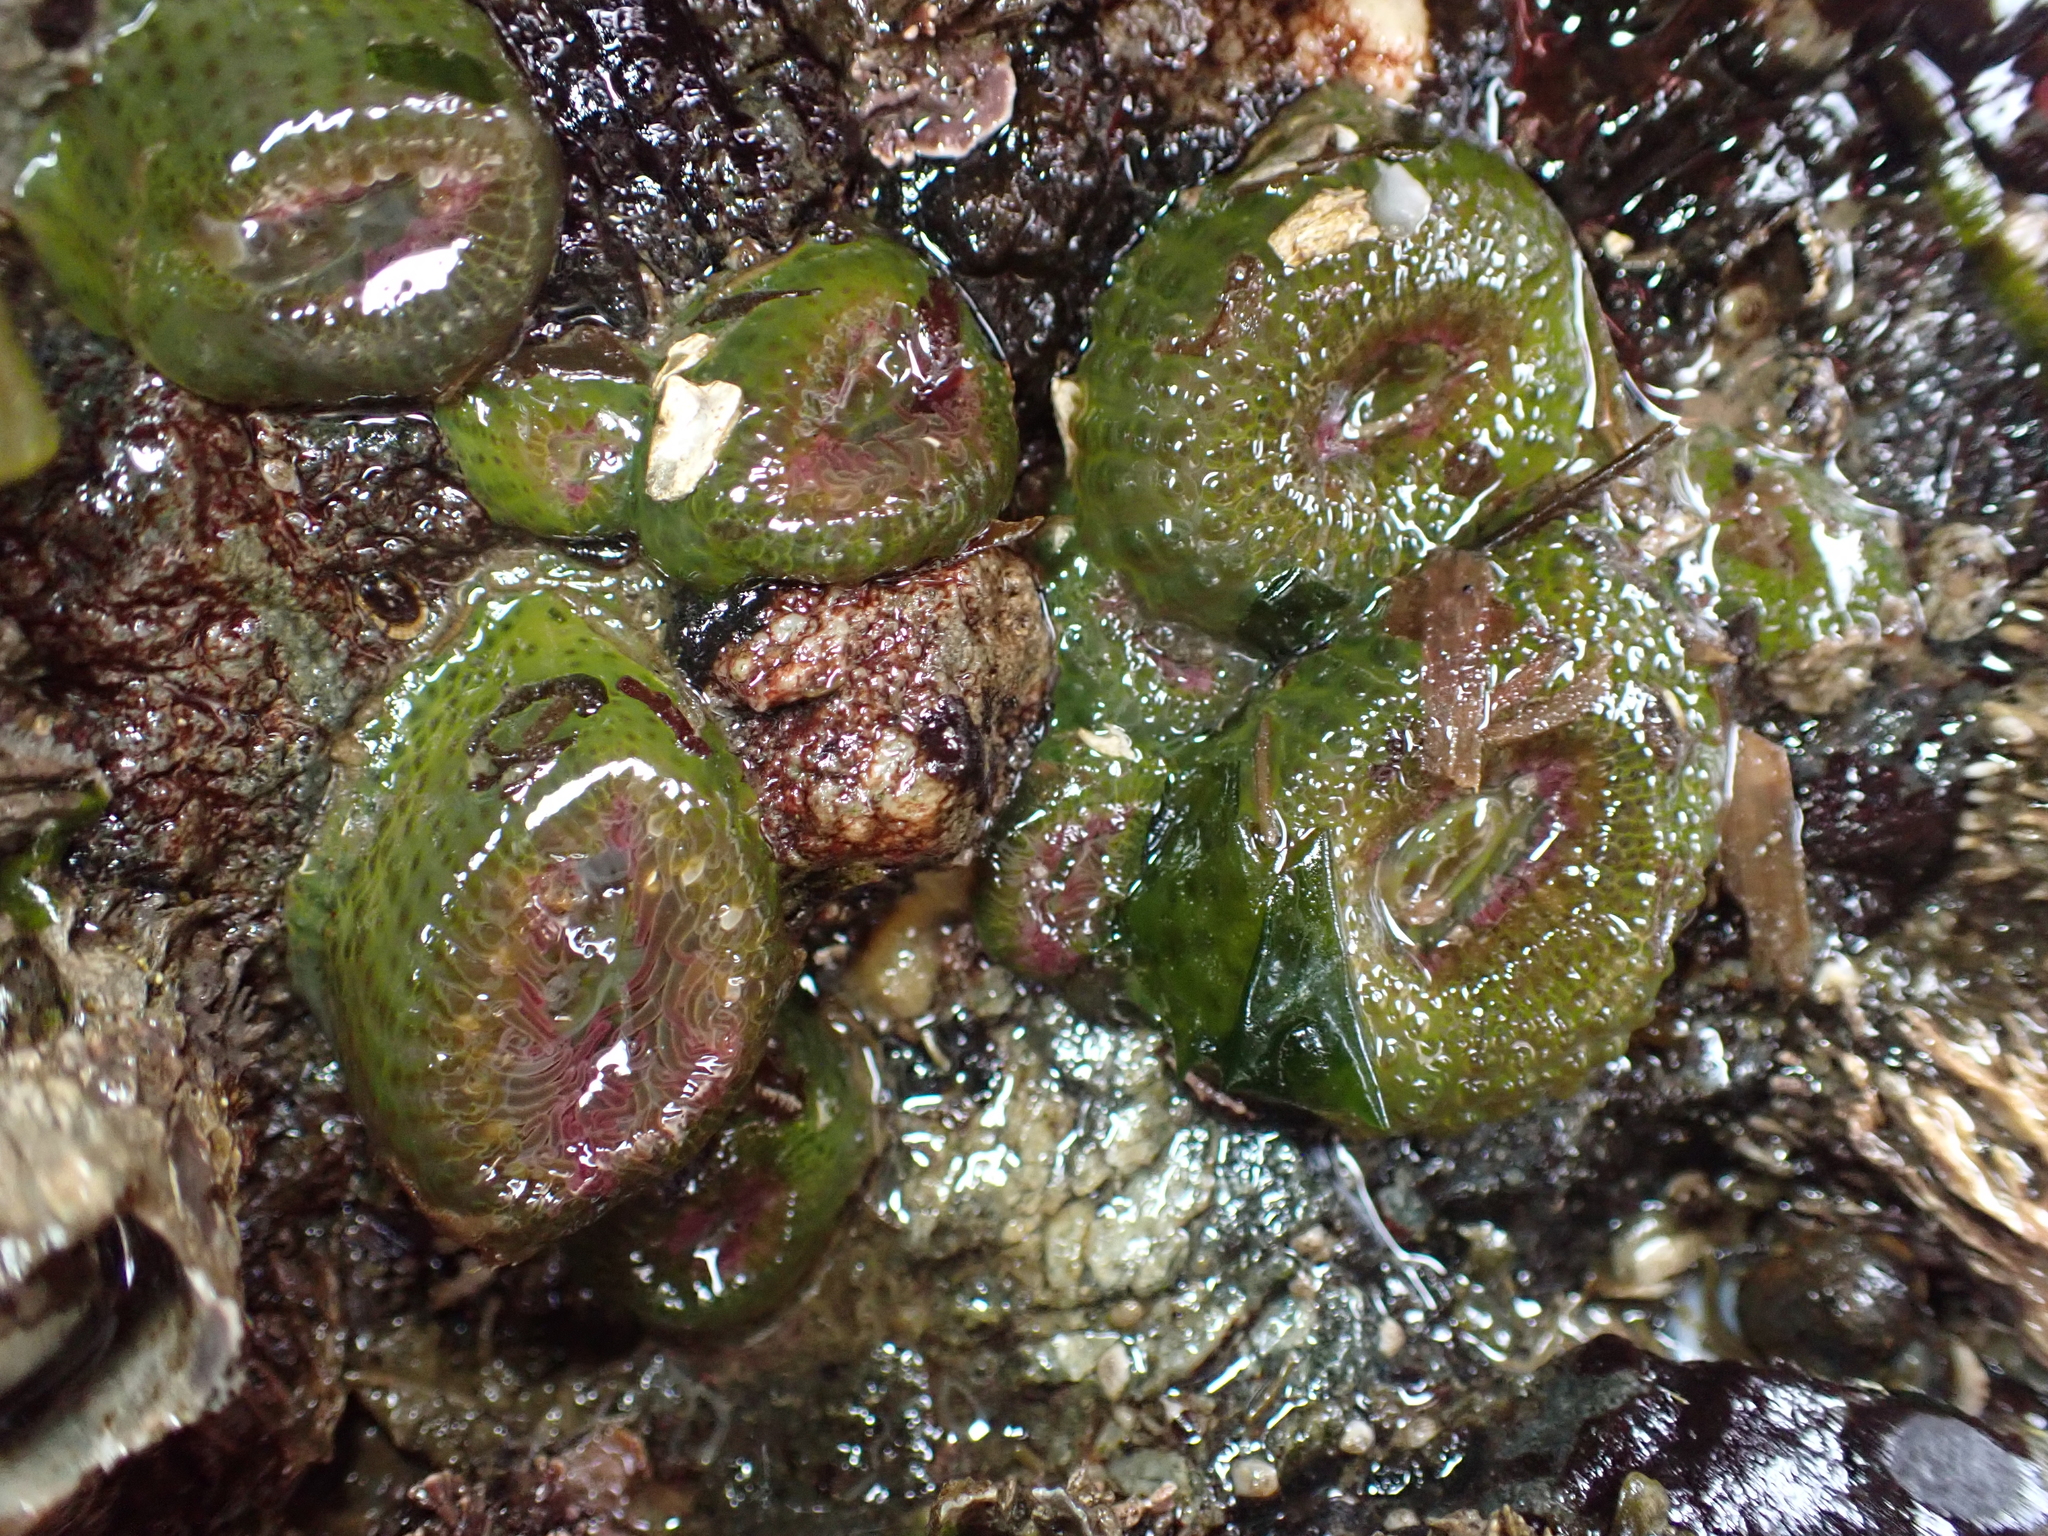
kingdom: Animalia
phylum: Cnidaria
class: Anthozoa
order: Actiniaria
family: Actiniidae
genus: Anthopleura
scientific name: Anthopleura elegantissima
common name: Clonal anemone
